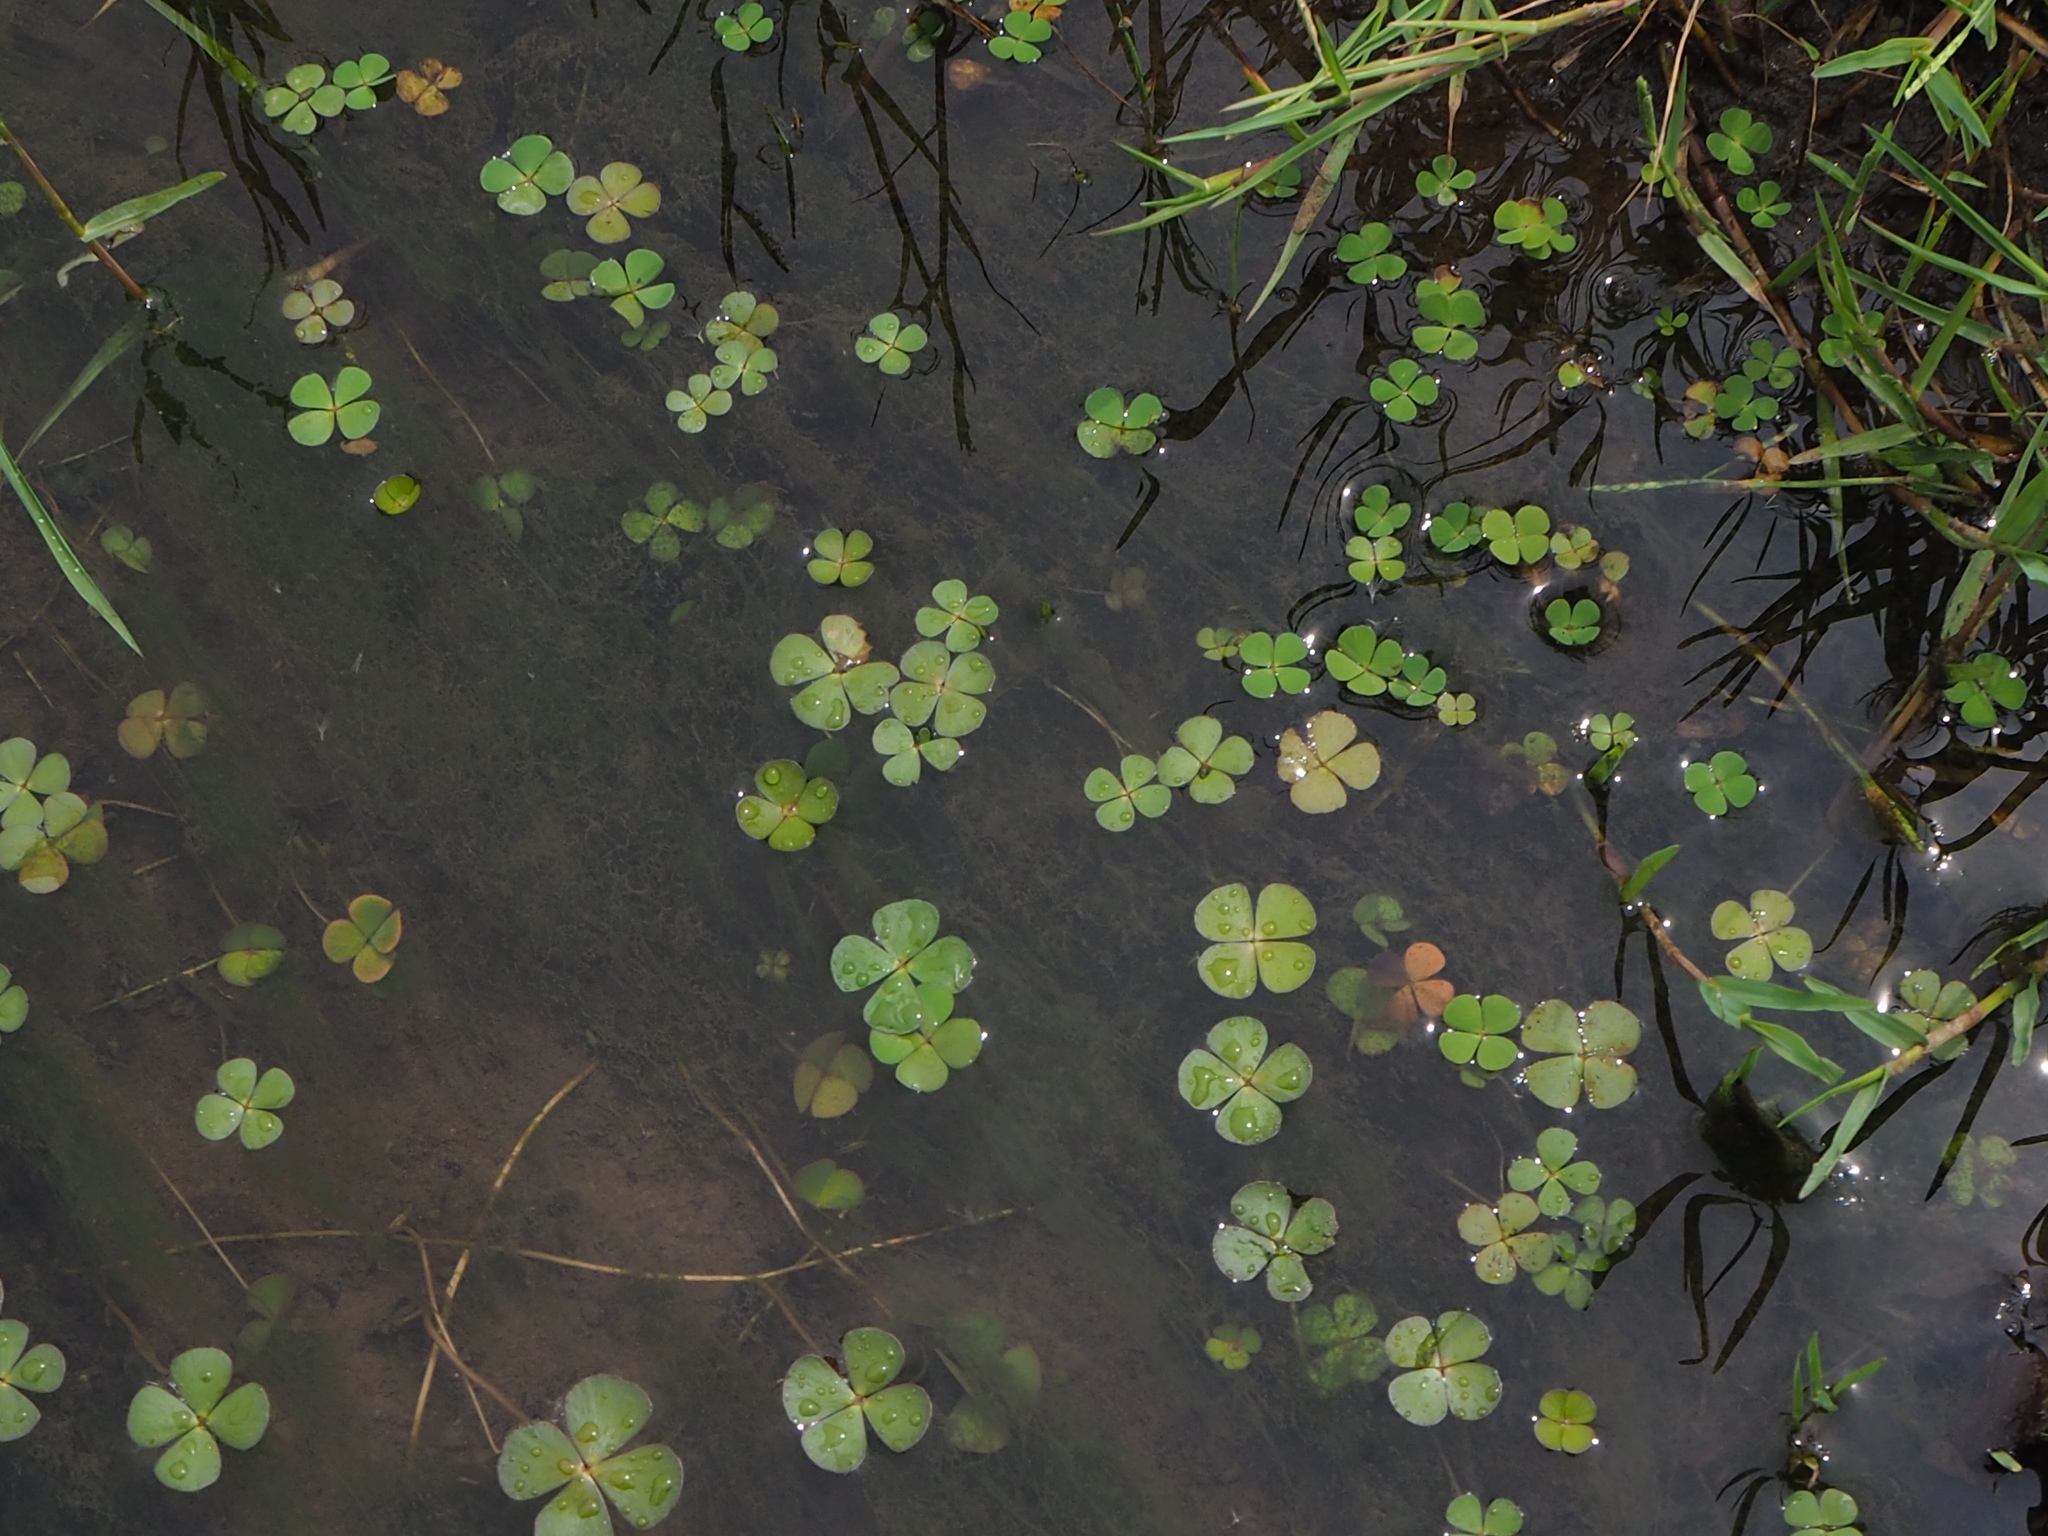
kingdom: Plantae
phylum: Tracheophyta
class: Polypodiopsida
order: Salviniales
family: Marsileaceae
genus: Marsilea
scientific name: Marsilea minuta
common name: Dwarf waterclover
